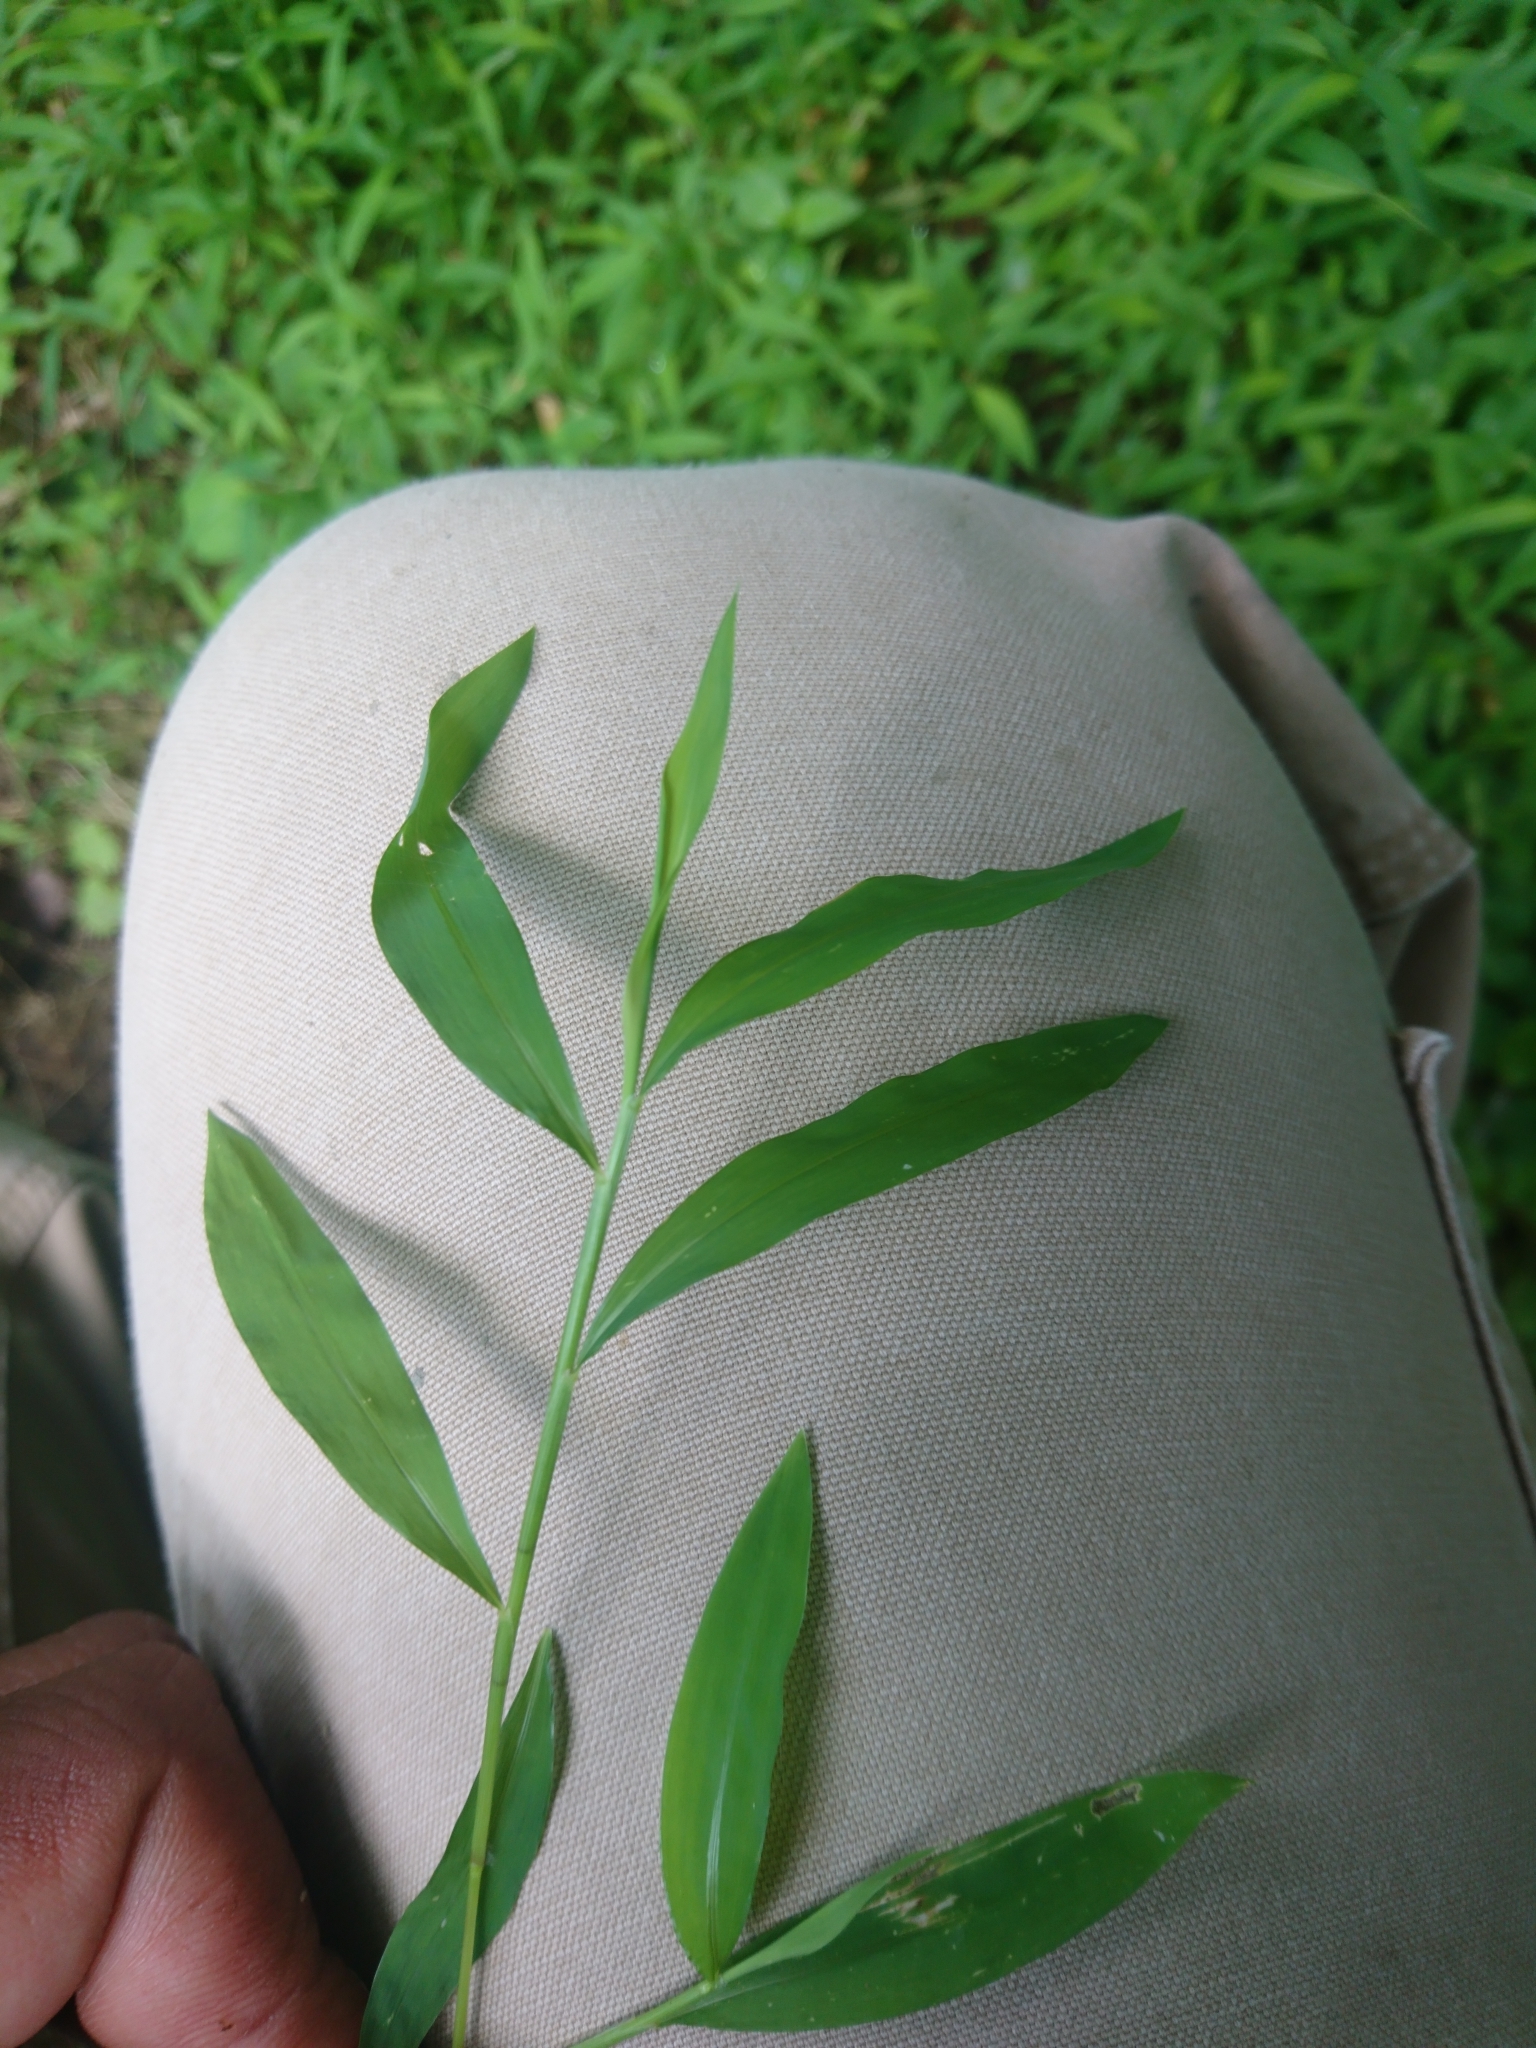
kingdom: Plantae
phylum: Tracheophyta
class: Liliopsida
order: Poales
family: Poaceae
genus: Microstegium
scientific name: Microstegium vimineum
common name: Japanese stiltgrass
